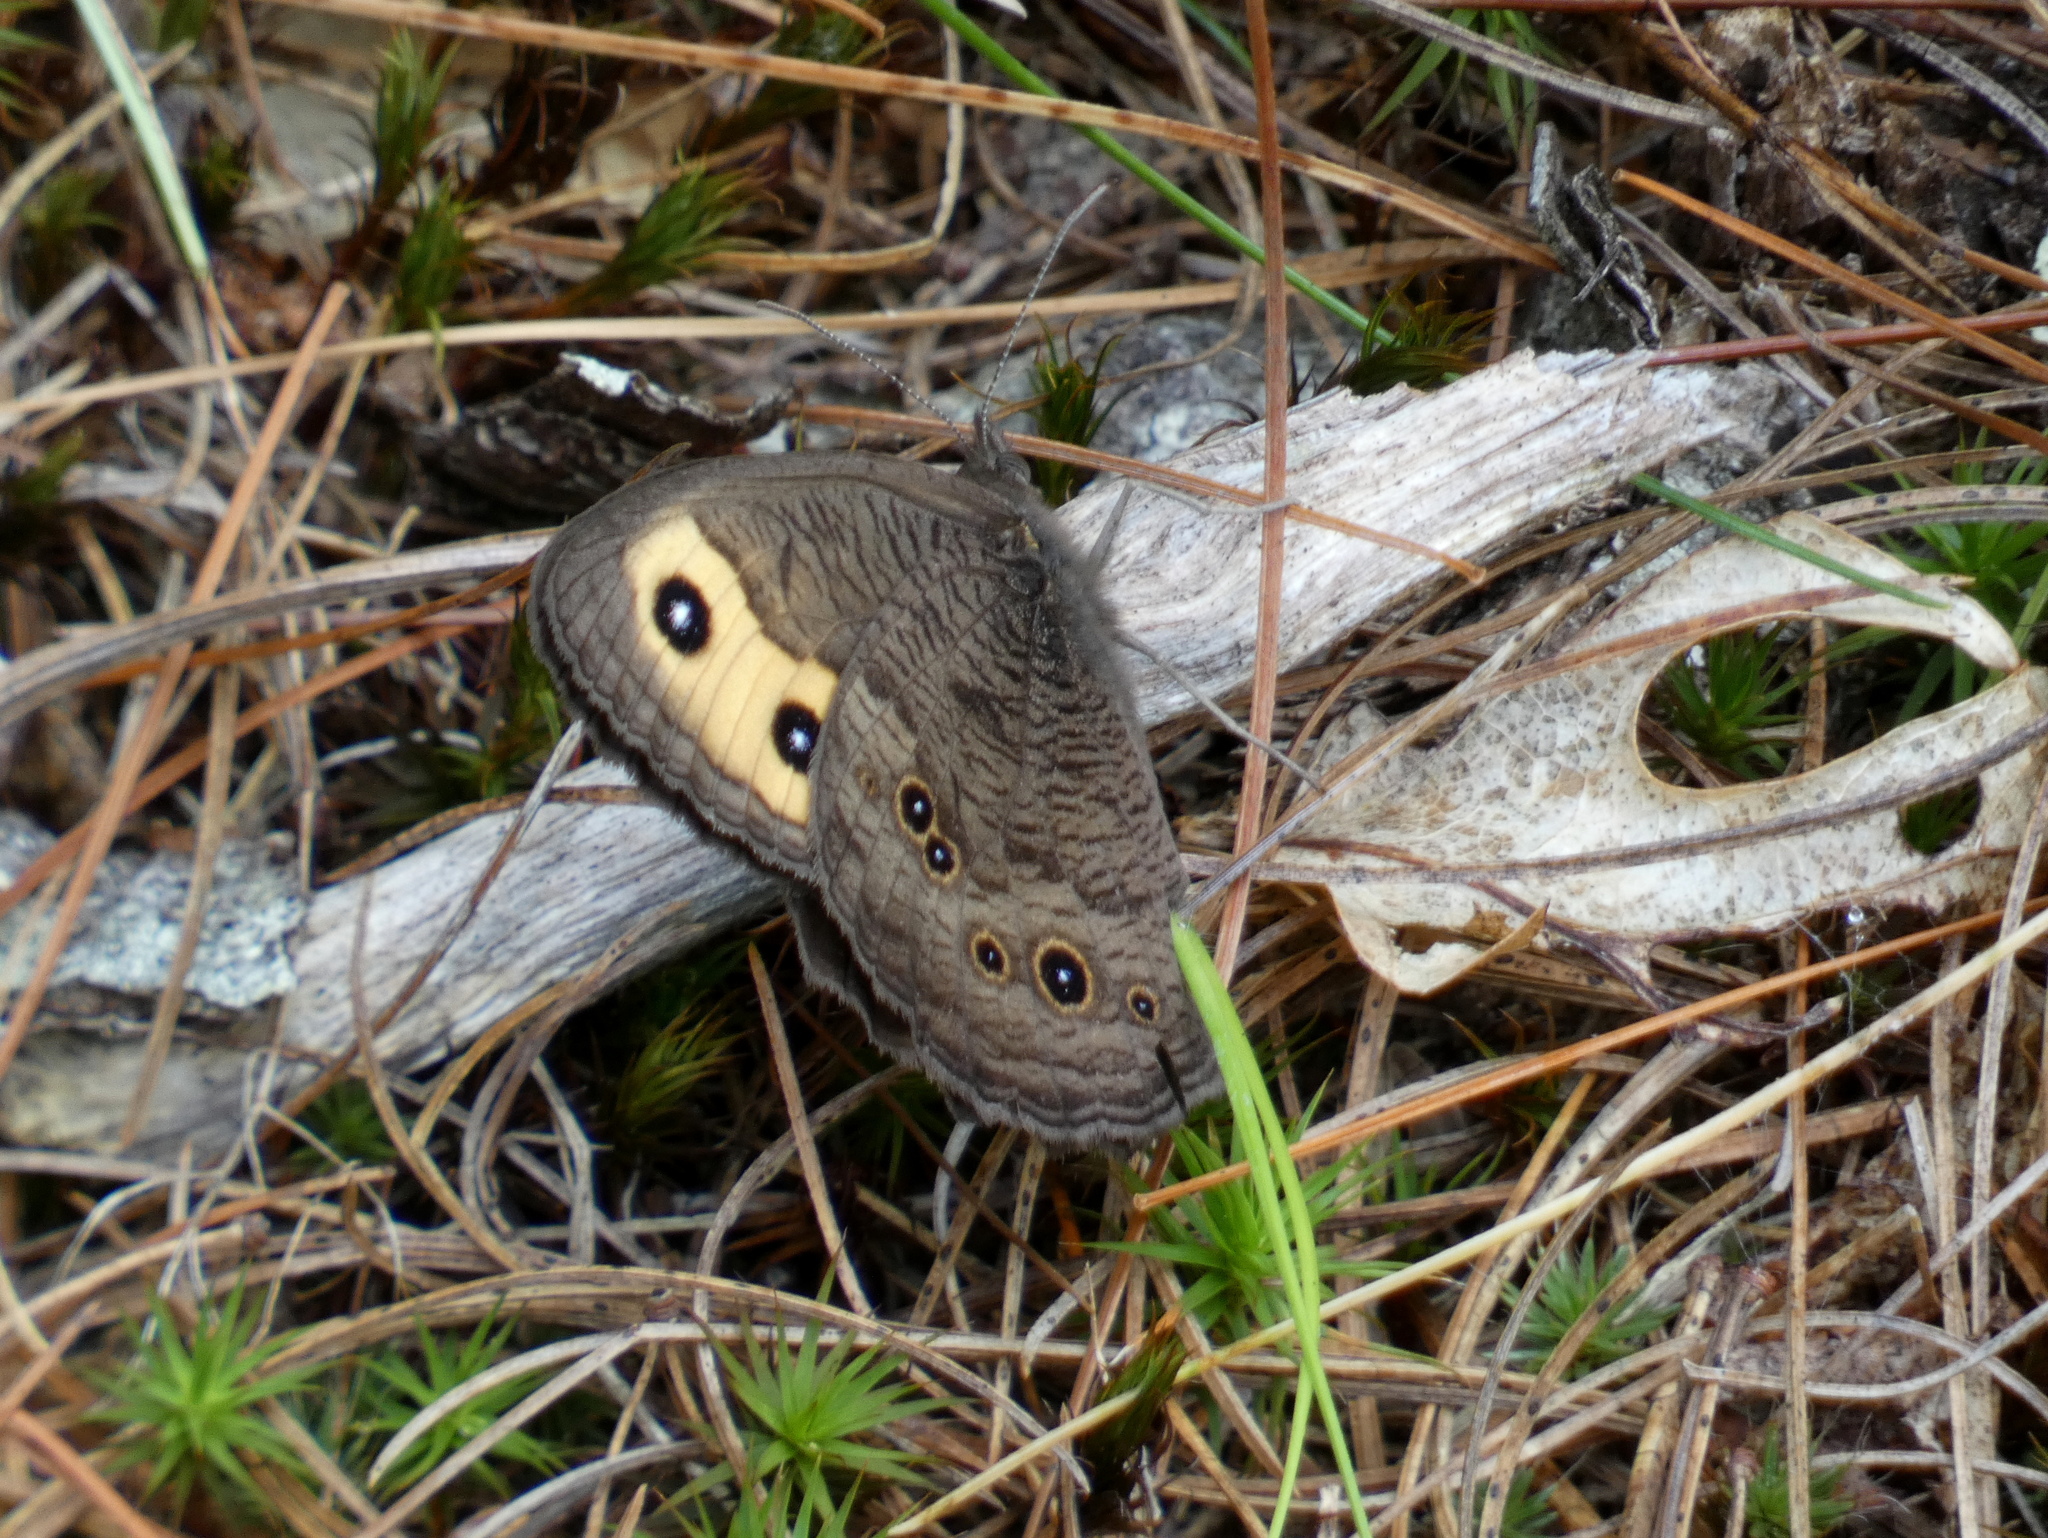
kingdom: Animalia
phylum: Arthropoda
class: Insecta
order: Lepidoptera
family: Nymphalidae
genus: Cercyonis
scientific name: Cercyonis pegala
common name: Common wood-nymph
